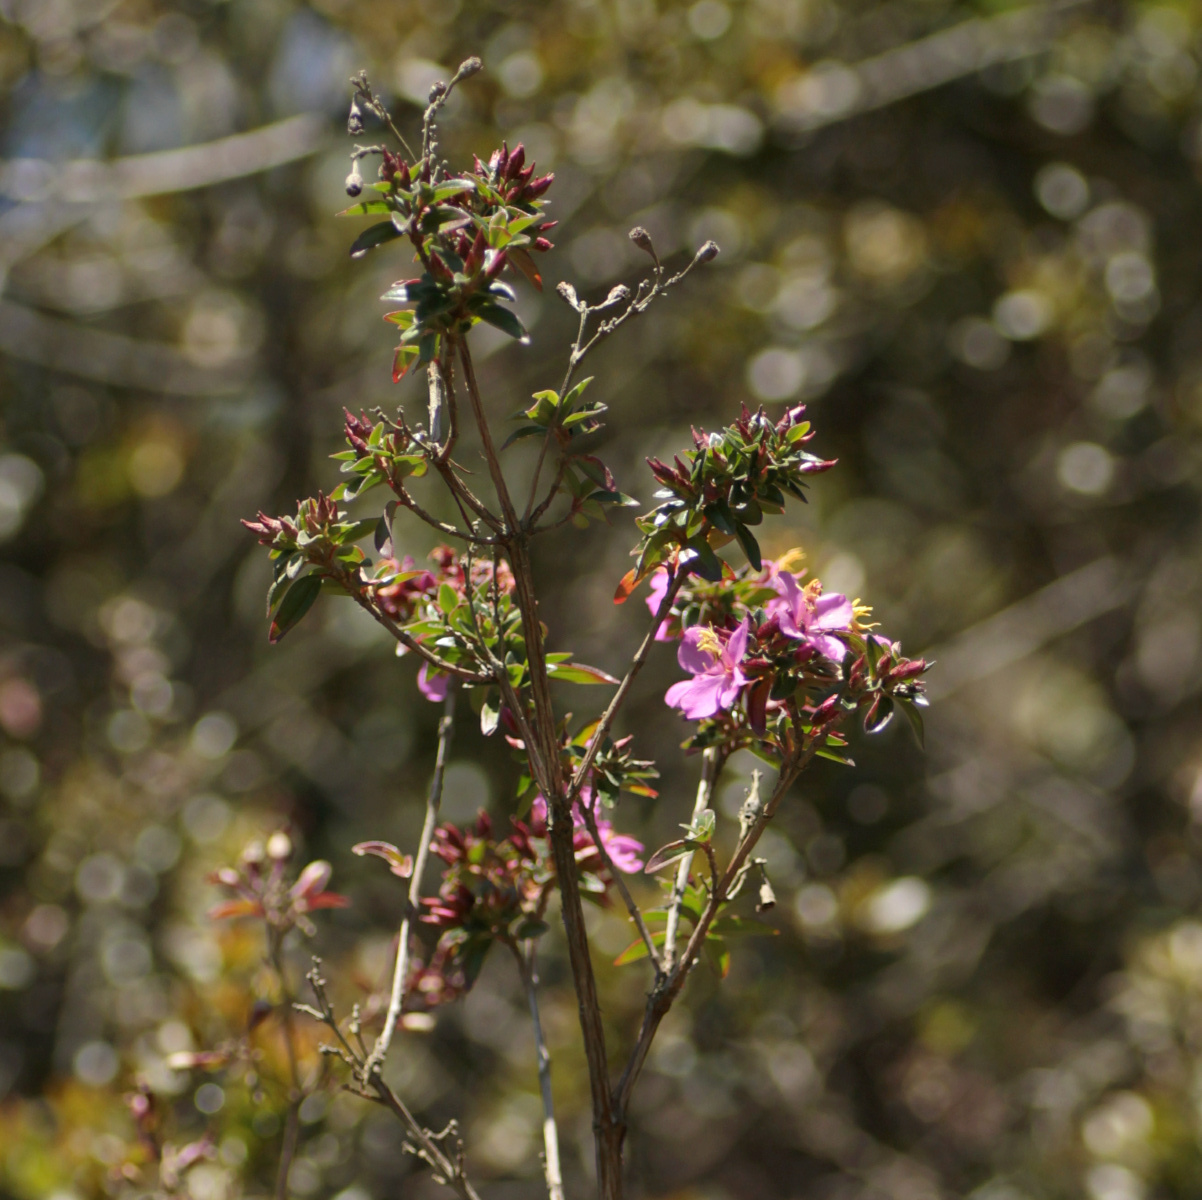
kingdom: Plantae
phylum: Tracheophyta
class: Magnoliopsida
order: Myrtales
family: Melastomataceae
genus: Monochaetum
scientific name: Monochaetum myrtoideum
